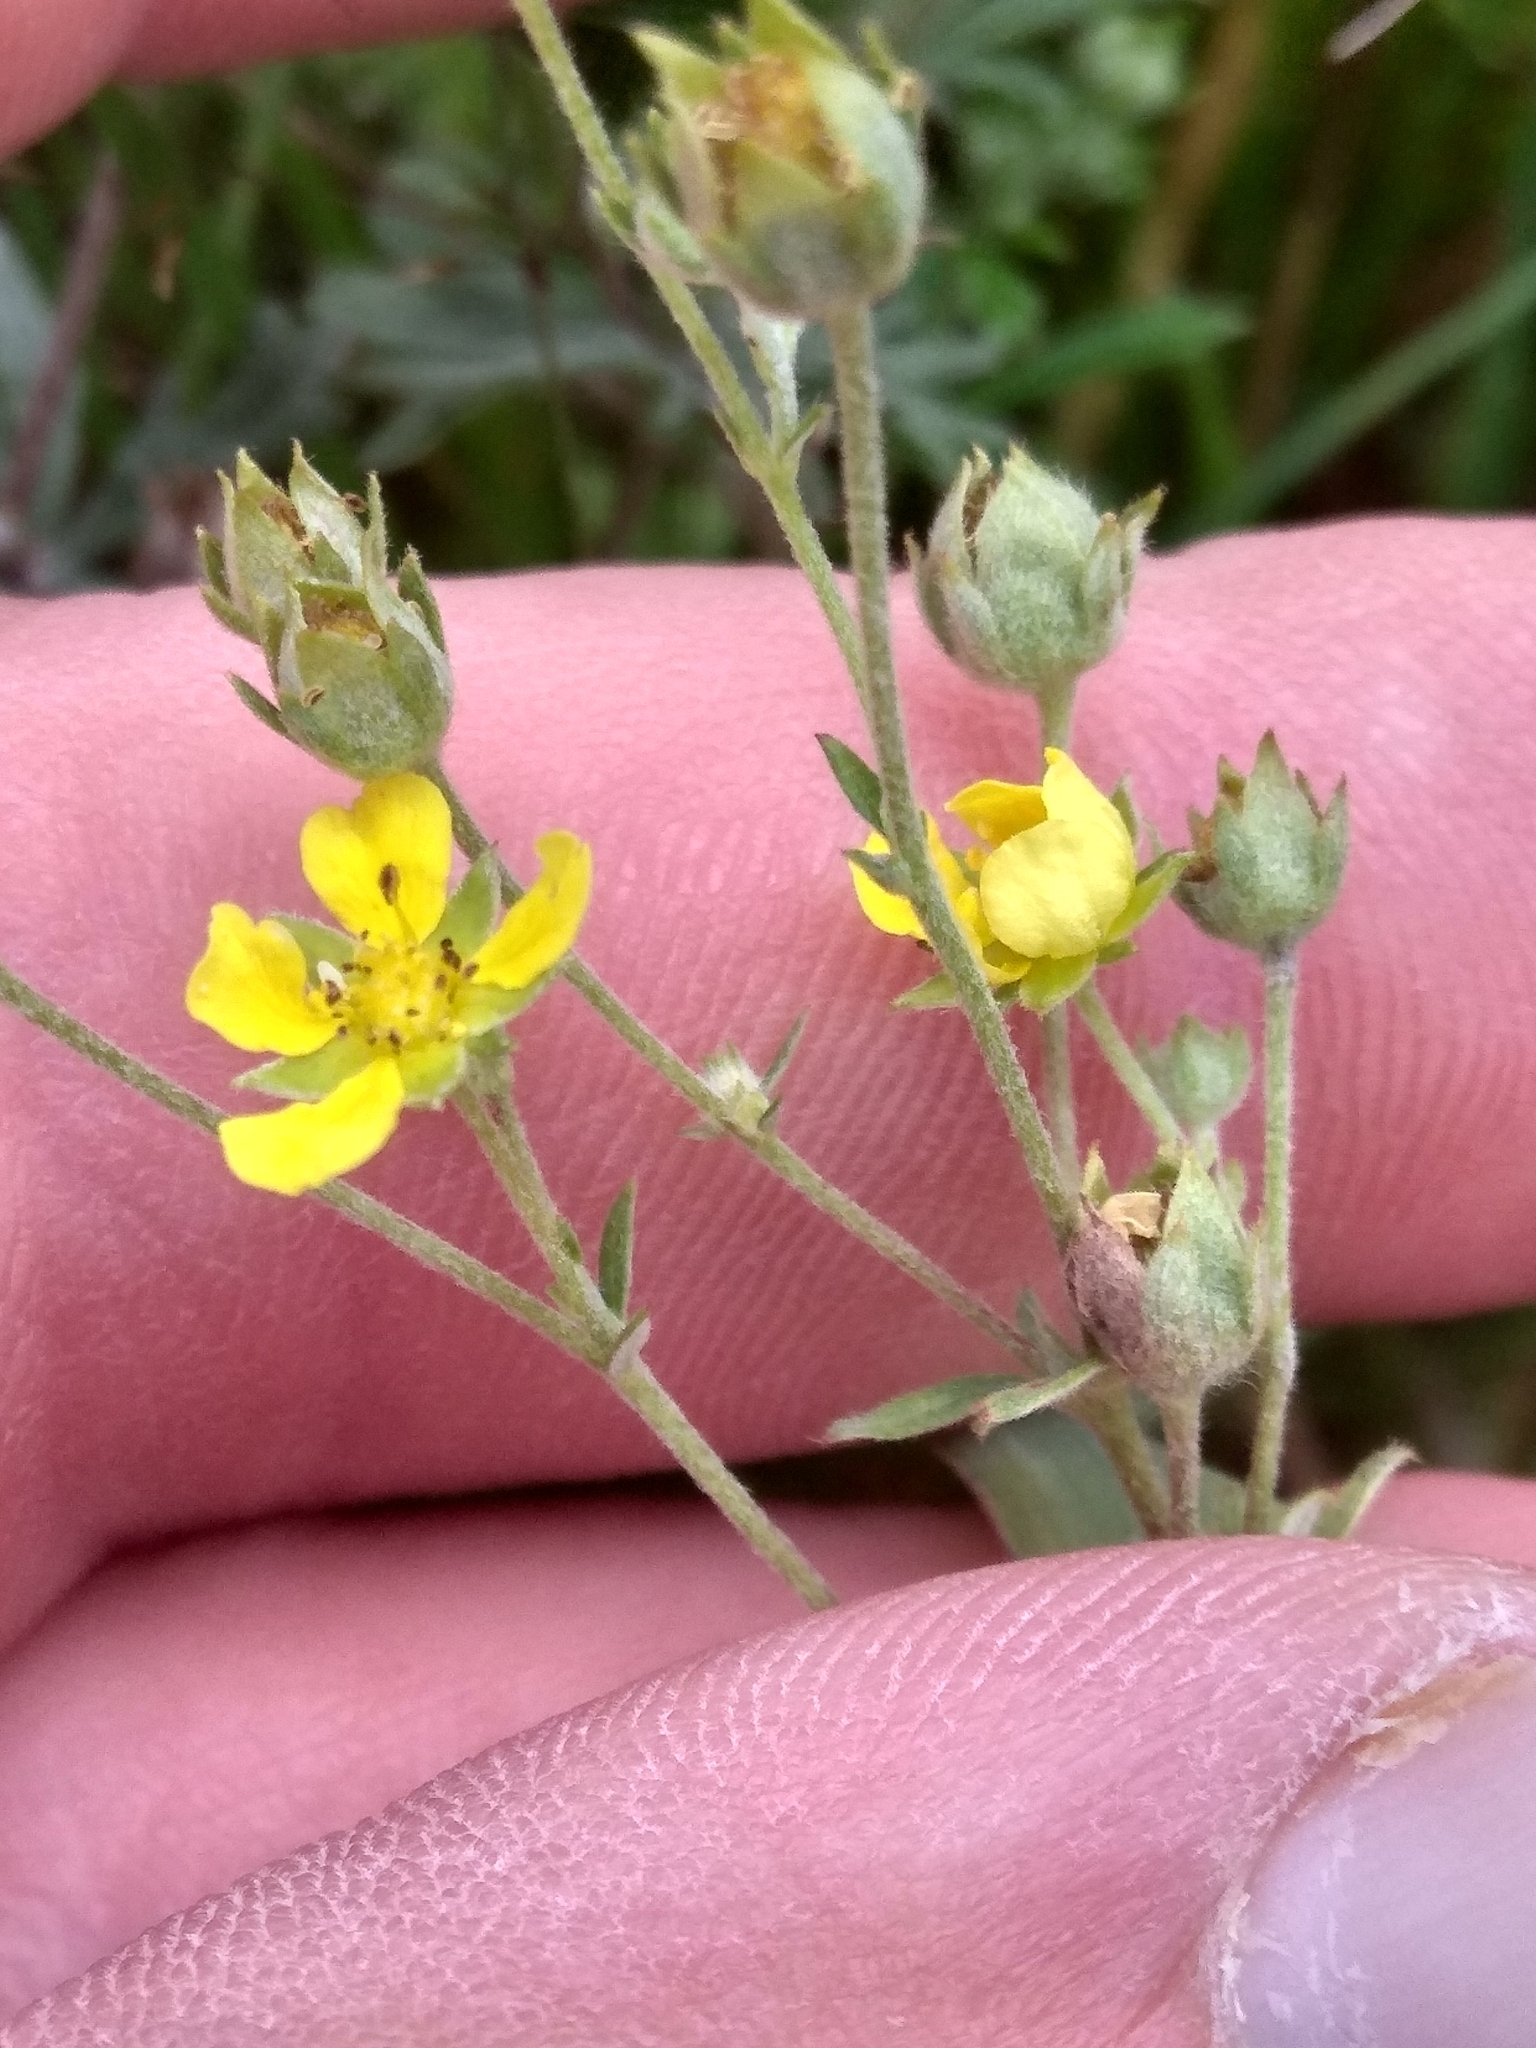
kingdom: Plantae
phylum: Tracheophyta
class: Magnoliopsida
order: Rosales
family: Rosaceae
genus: Potentilla
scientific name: Potentilla argentea
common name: Hoary cinquefoil
